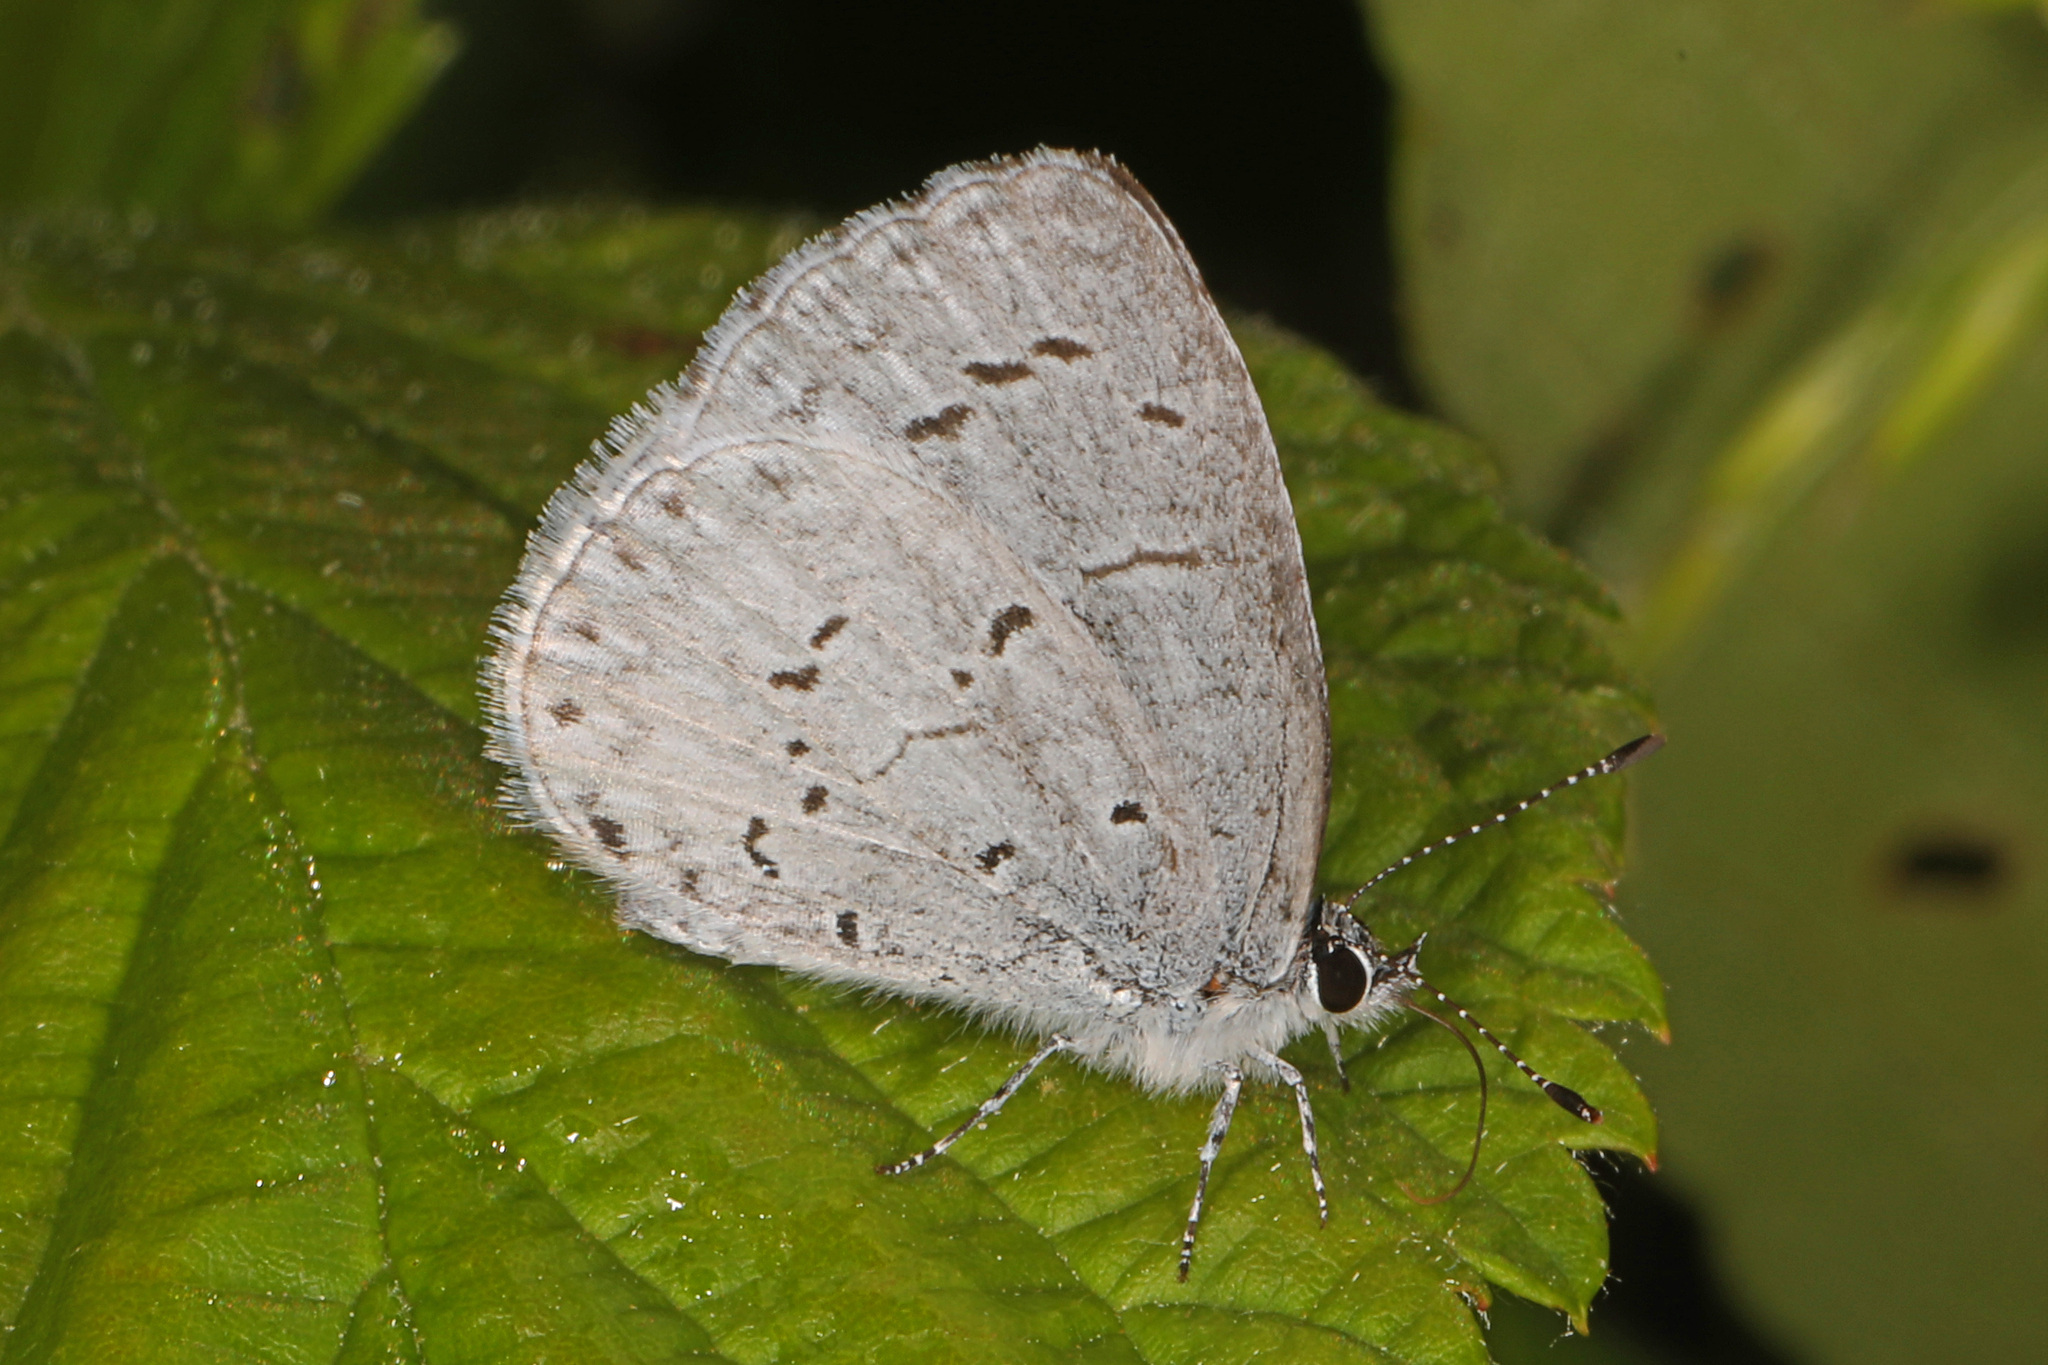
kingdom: Animalia
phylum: Arthropoda
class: Insecta
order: Lepidoptera
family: Lycaenidae
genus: Cyaniris
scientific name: Cyaniris neglecta
